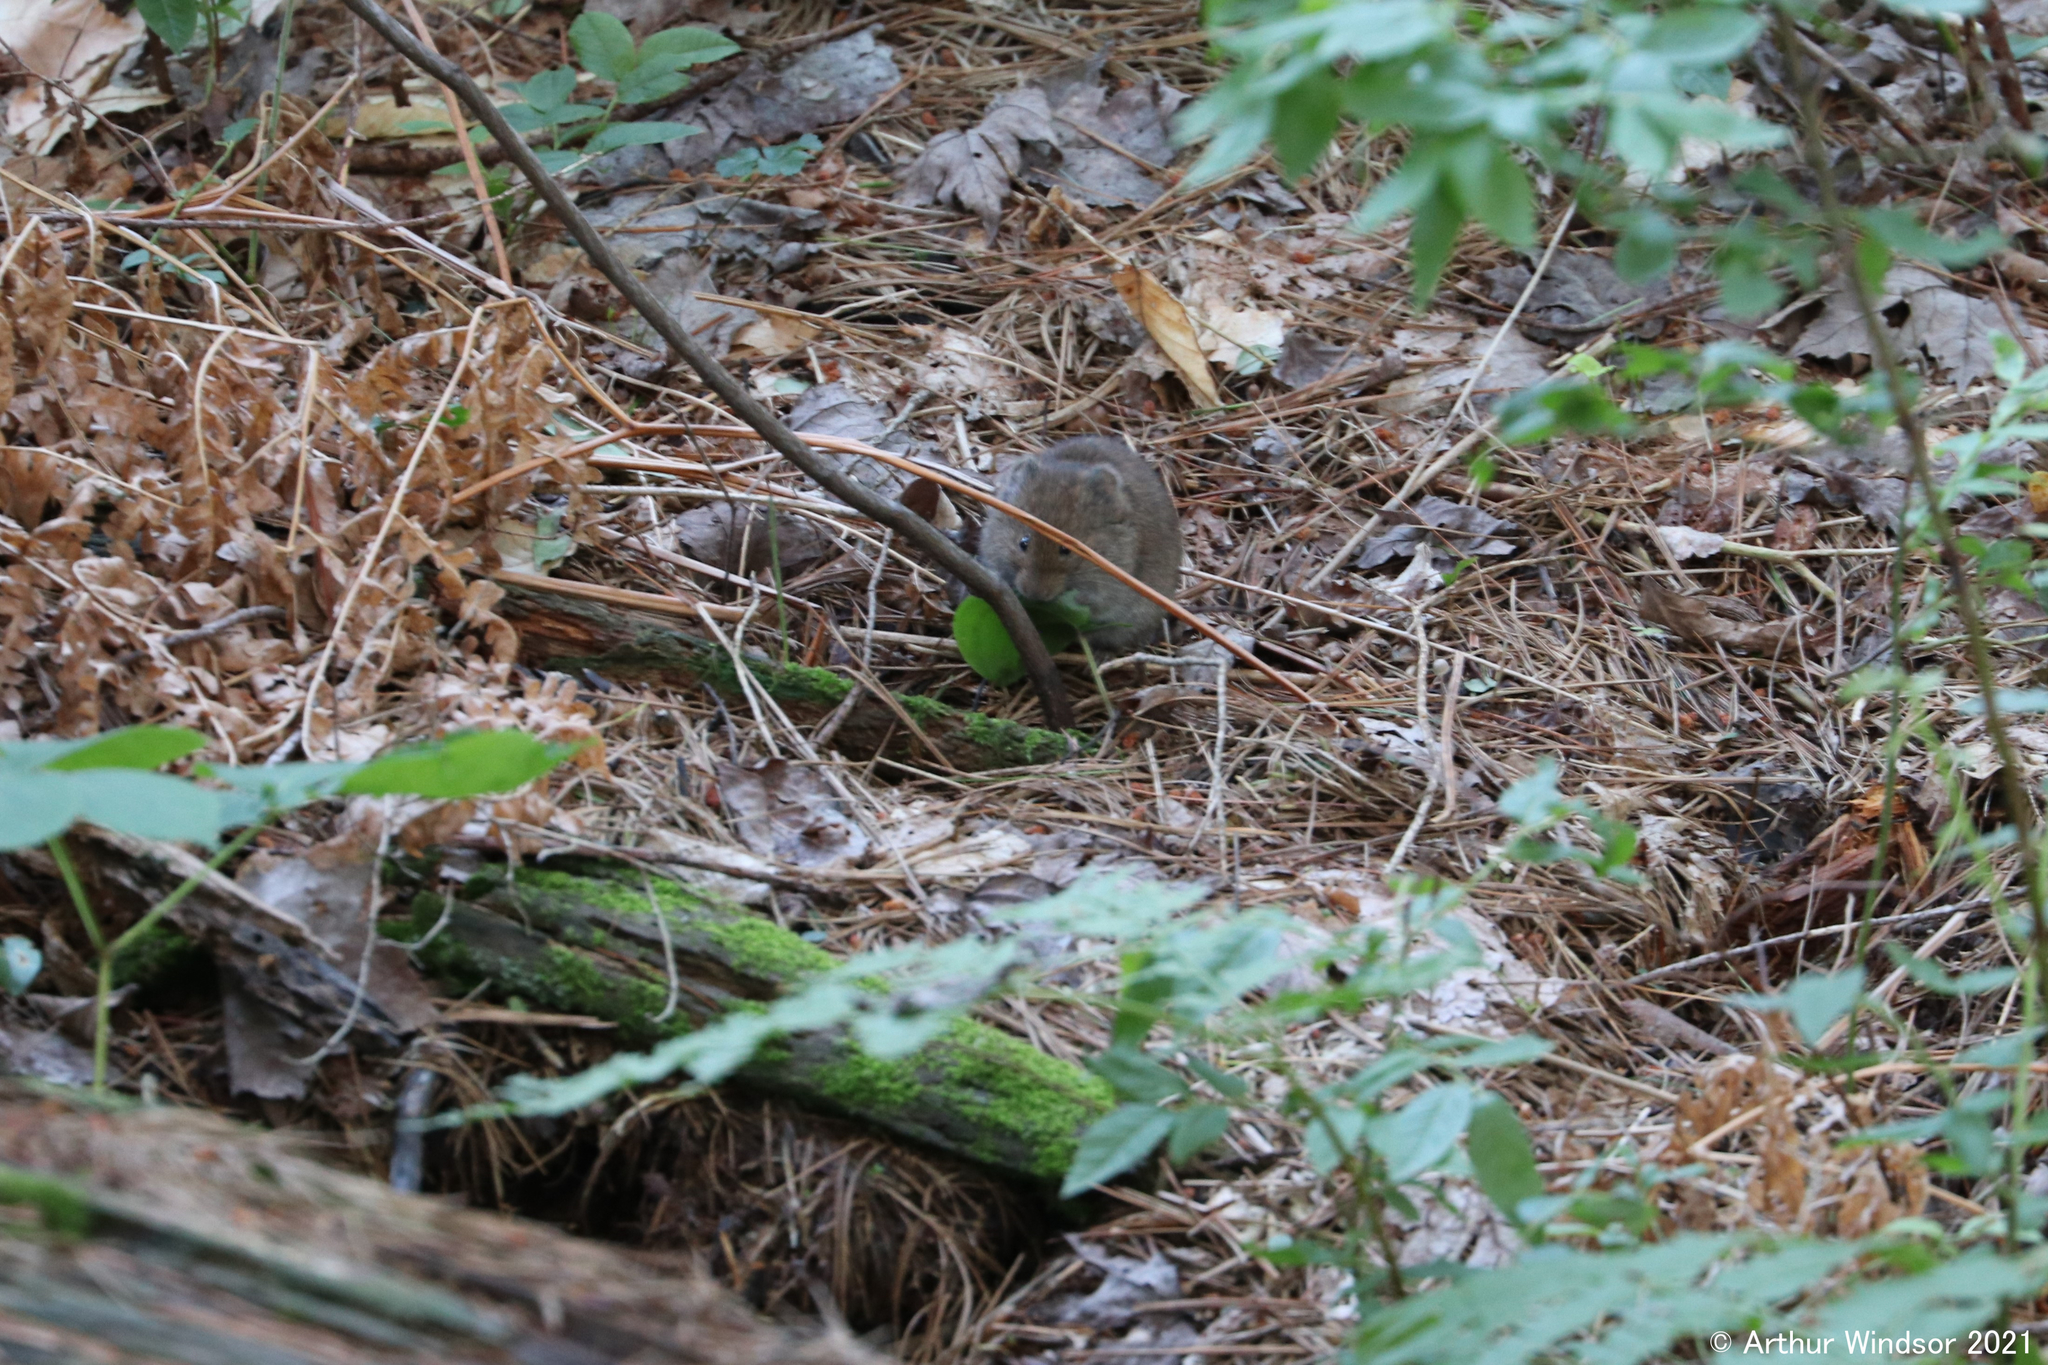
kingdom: Animalia
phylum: Chordata
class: Mammalia
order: Rodentia
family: Cricetidae
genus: Microtus
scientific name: Microtus pennsylvanicus
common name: Meadow vole
